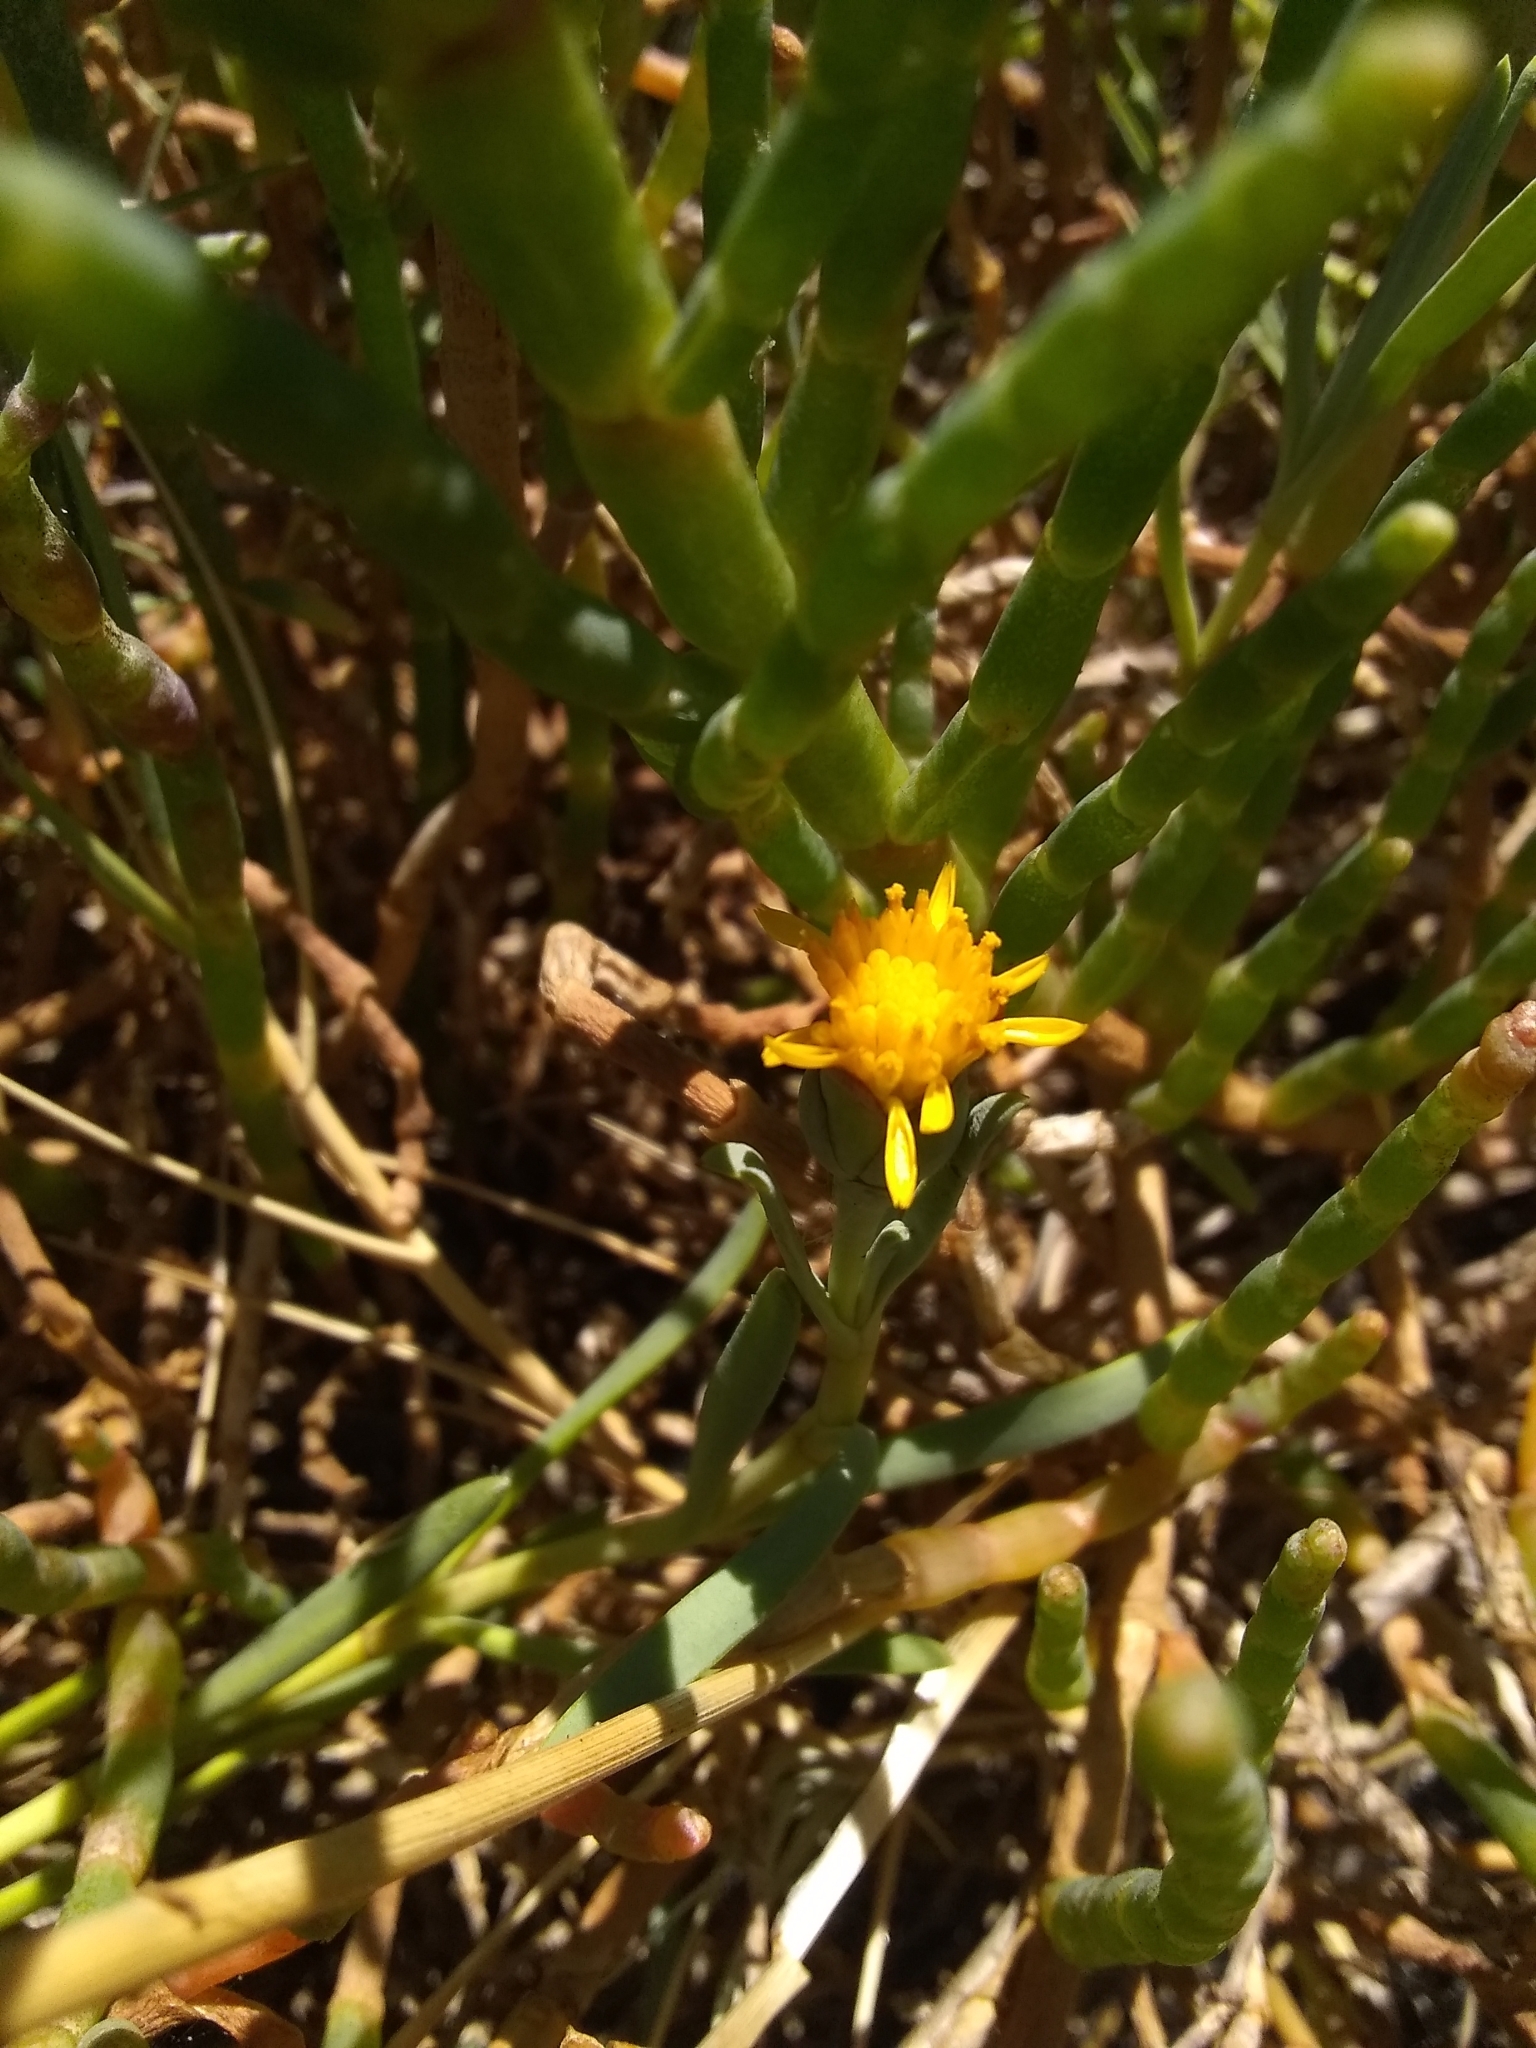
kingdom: Plantae
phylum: Tracheophyta
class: Magnoliopsida
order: Asterales
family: Asteraceae
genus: Jaumea
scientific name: Jaumea carnosa
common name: Fleshy jaumea
